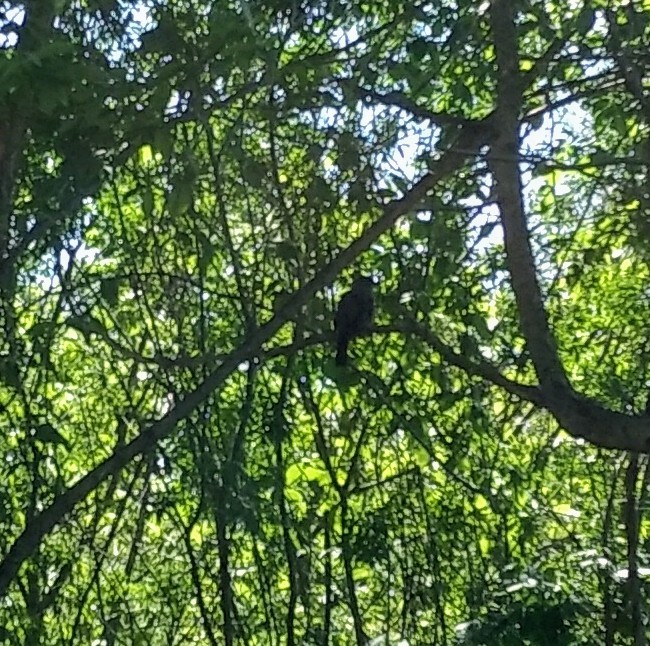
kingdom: Animalia
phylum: Chordata
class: Aves
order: Passeriformes
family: Mimidae
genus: Dumetella
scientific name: Dumetella carolinensis
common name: Gray catbird
